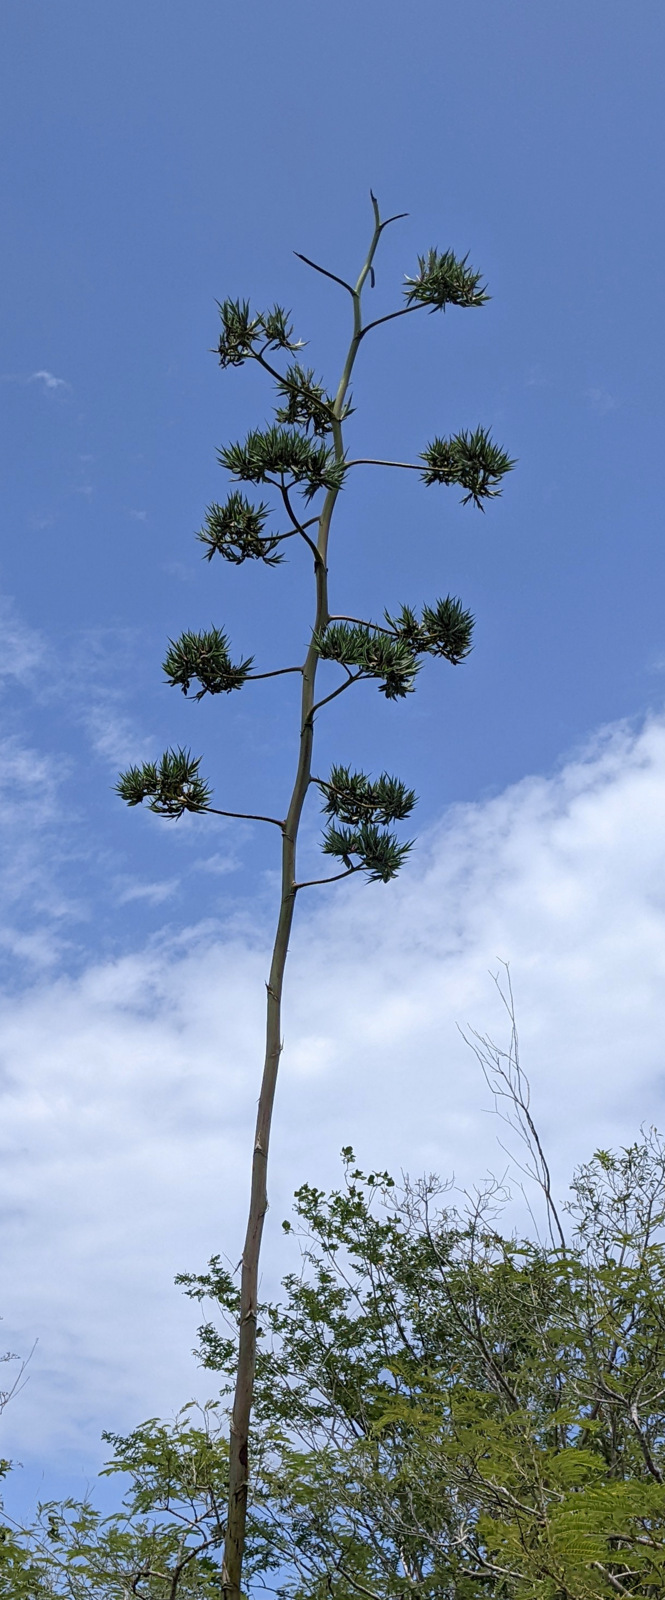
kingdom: Plantae
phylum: Tracheophyta
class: Liliopsida
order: Asparagales
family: Asparagaceae
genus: Agave
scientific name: Agave sisalana
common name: Sisal hemp
